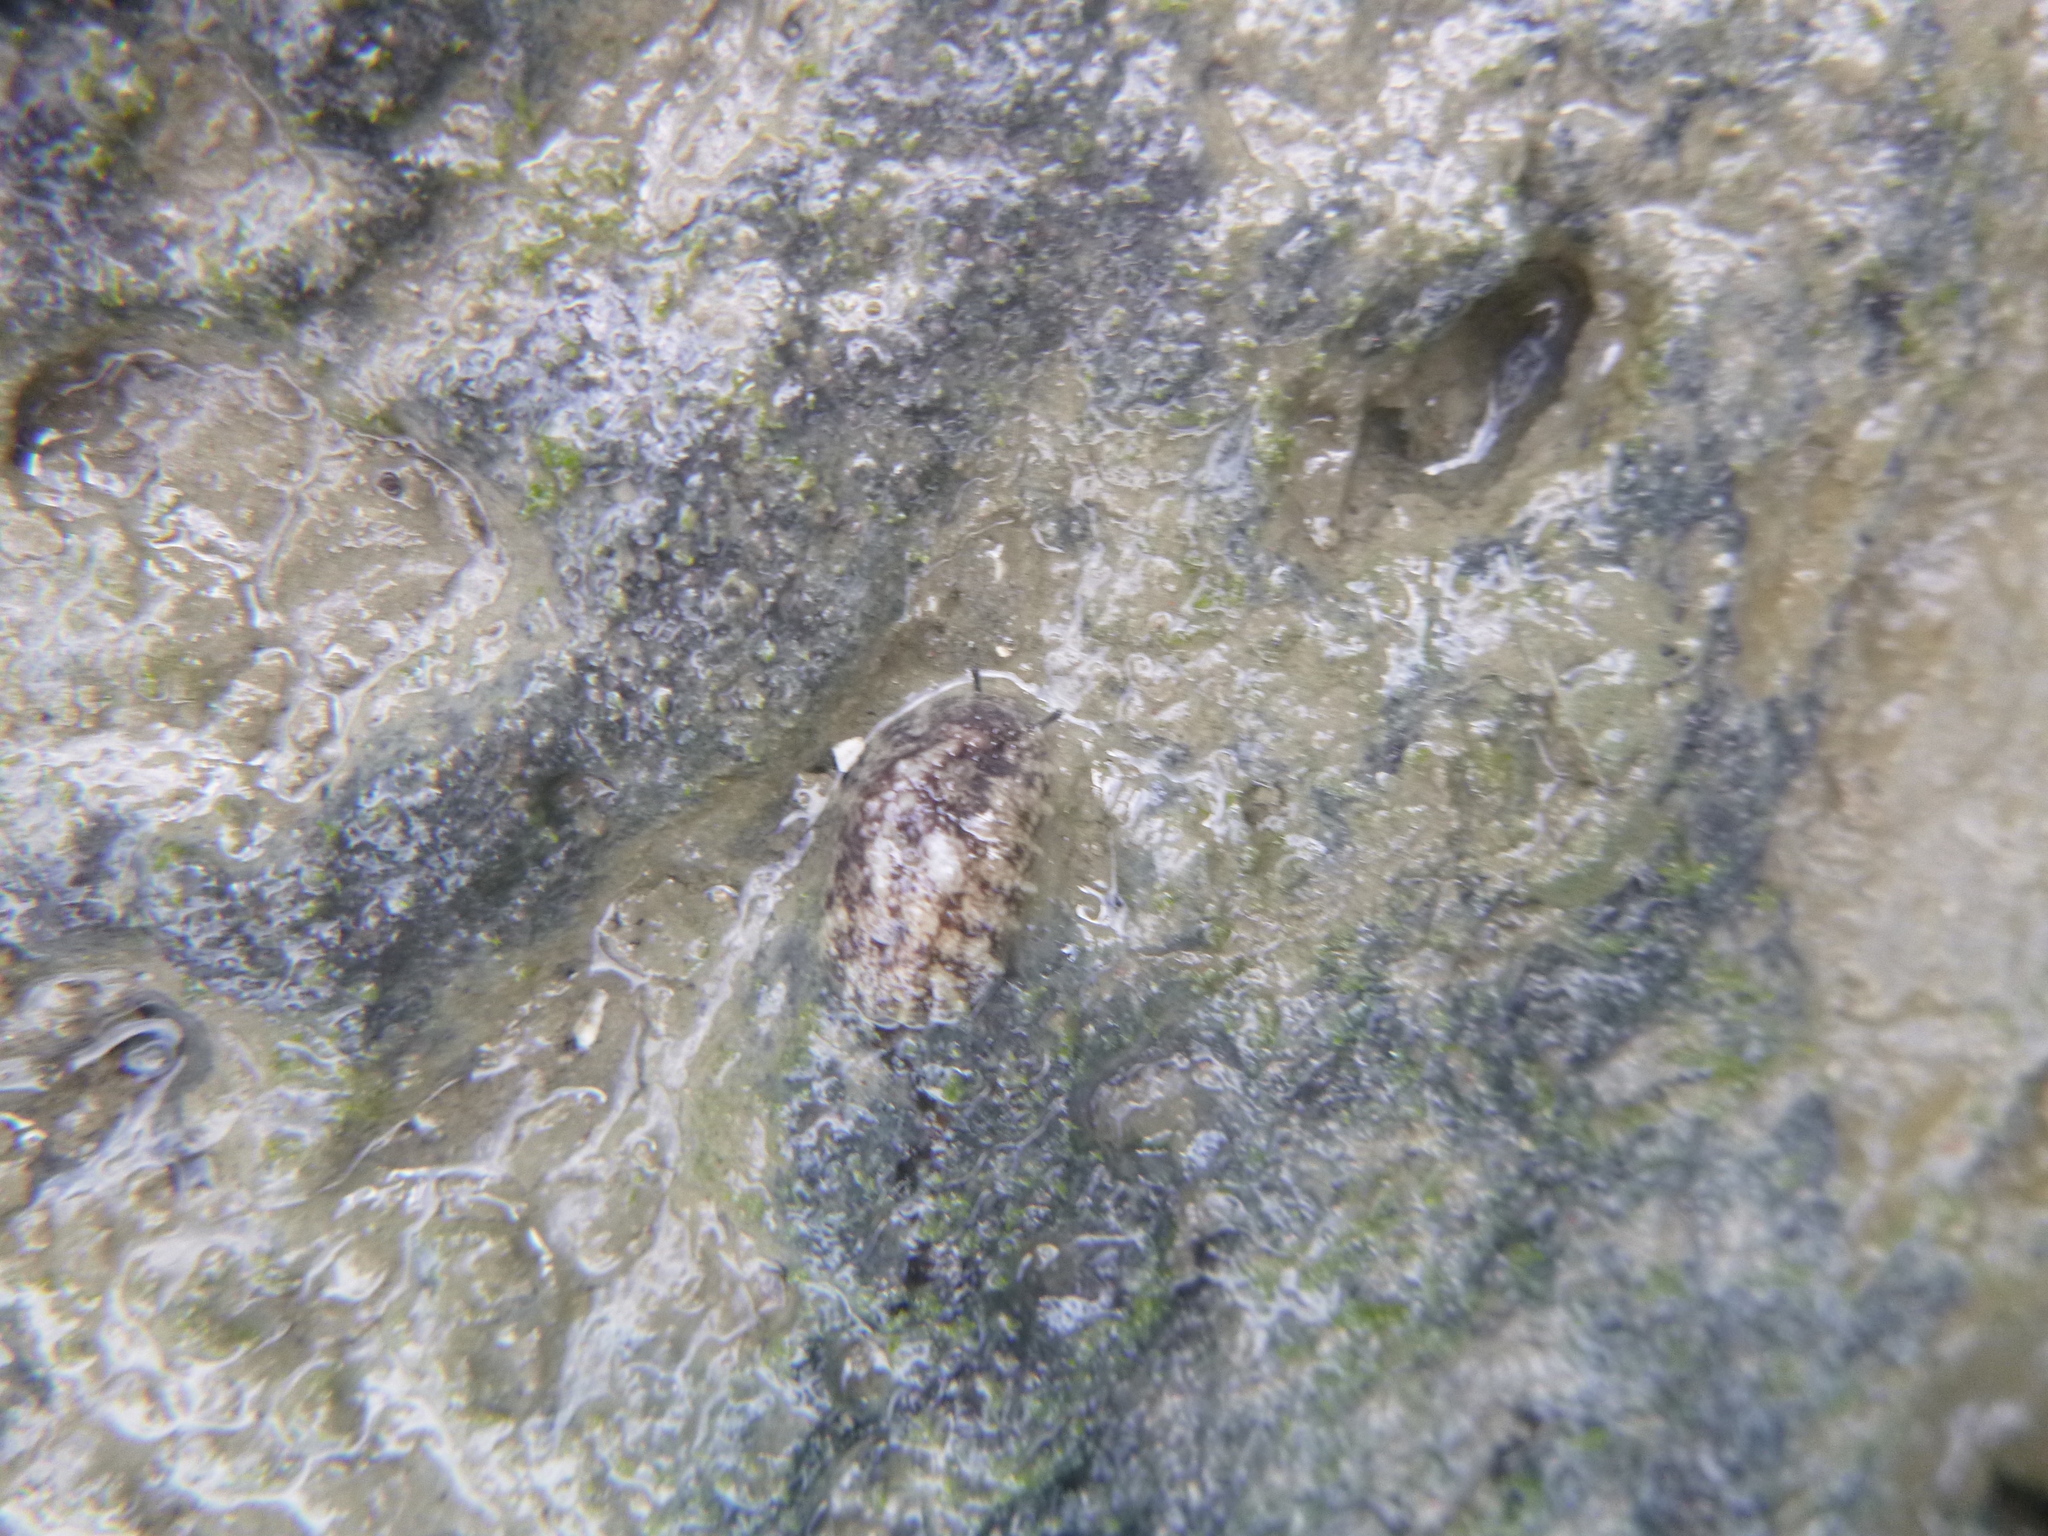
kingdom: Animalia
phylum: Mollusca
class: Gastropoda
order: Systellommatophora
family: Onchidiidae
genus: Onchidella
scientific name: Onchidella nigricans
